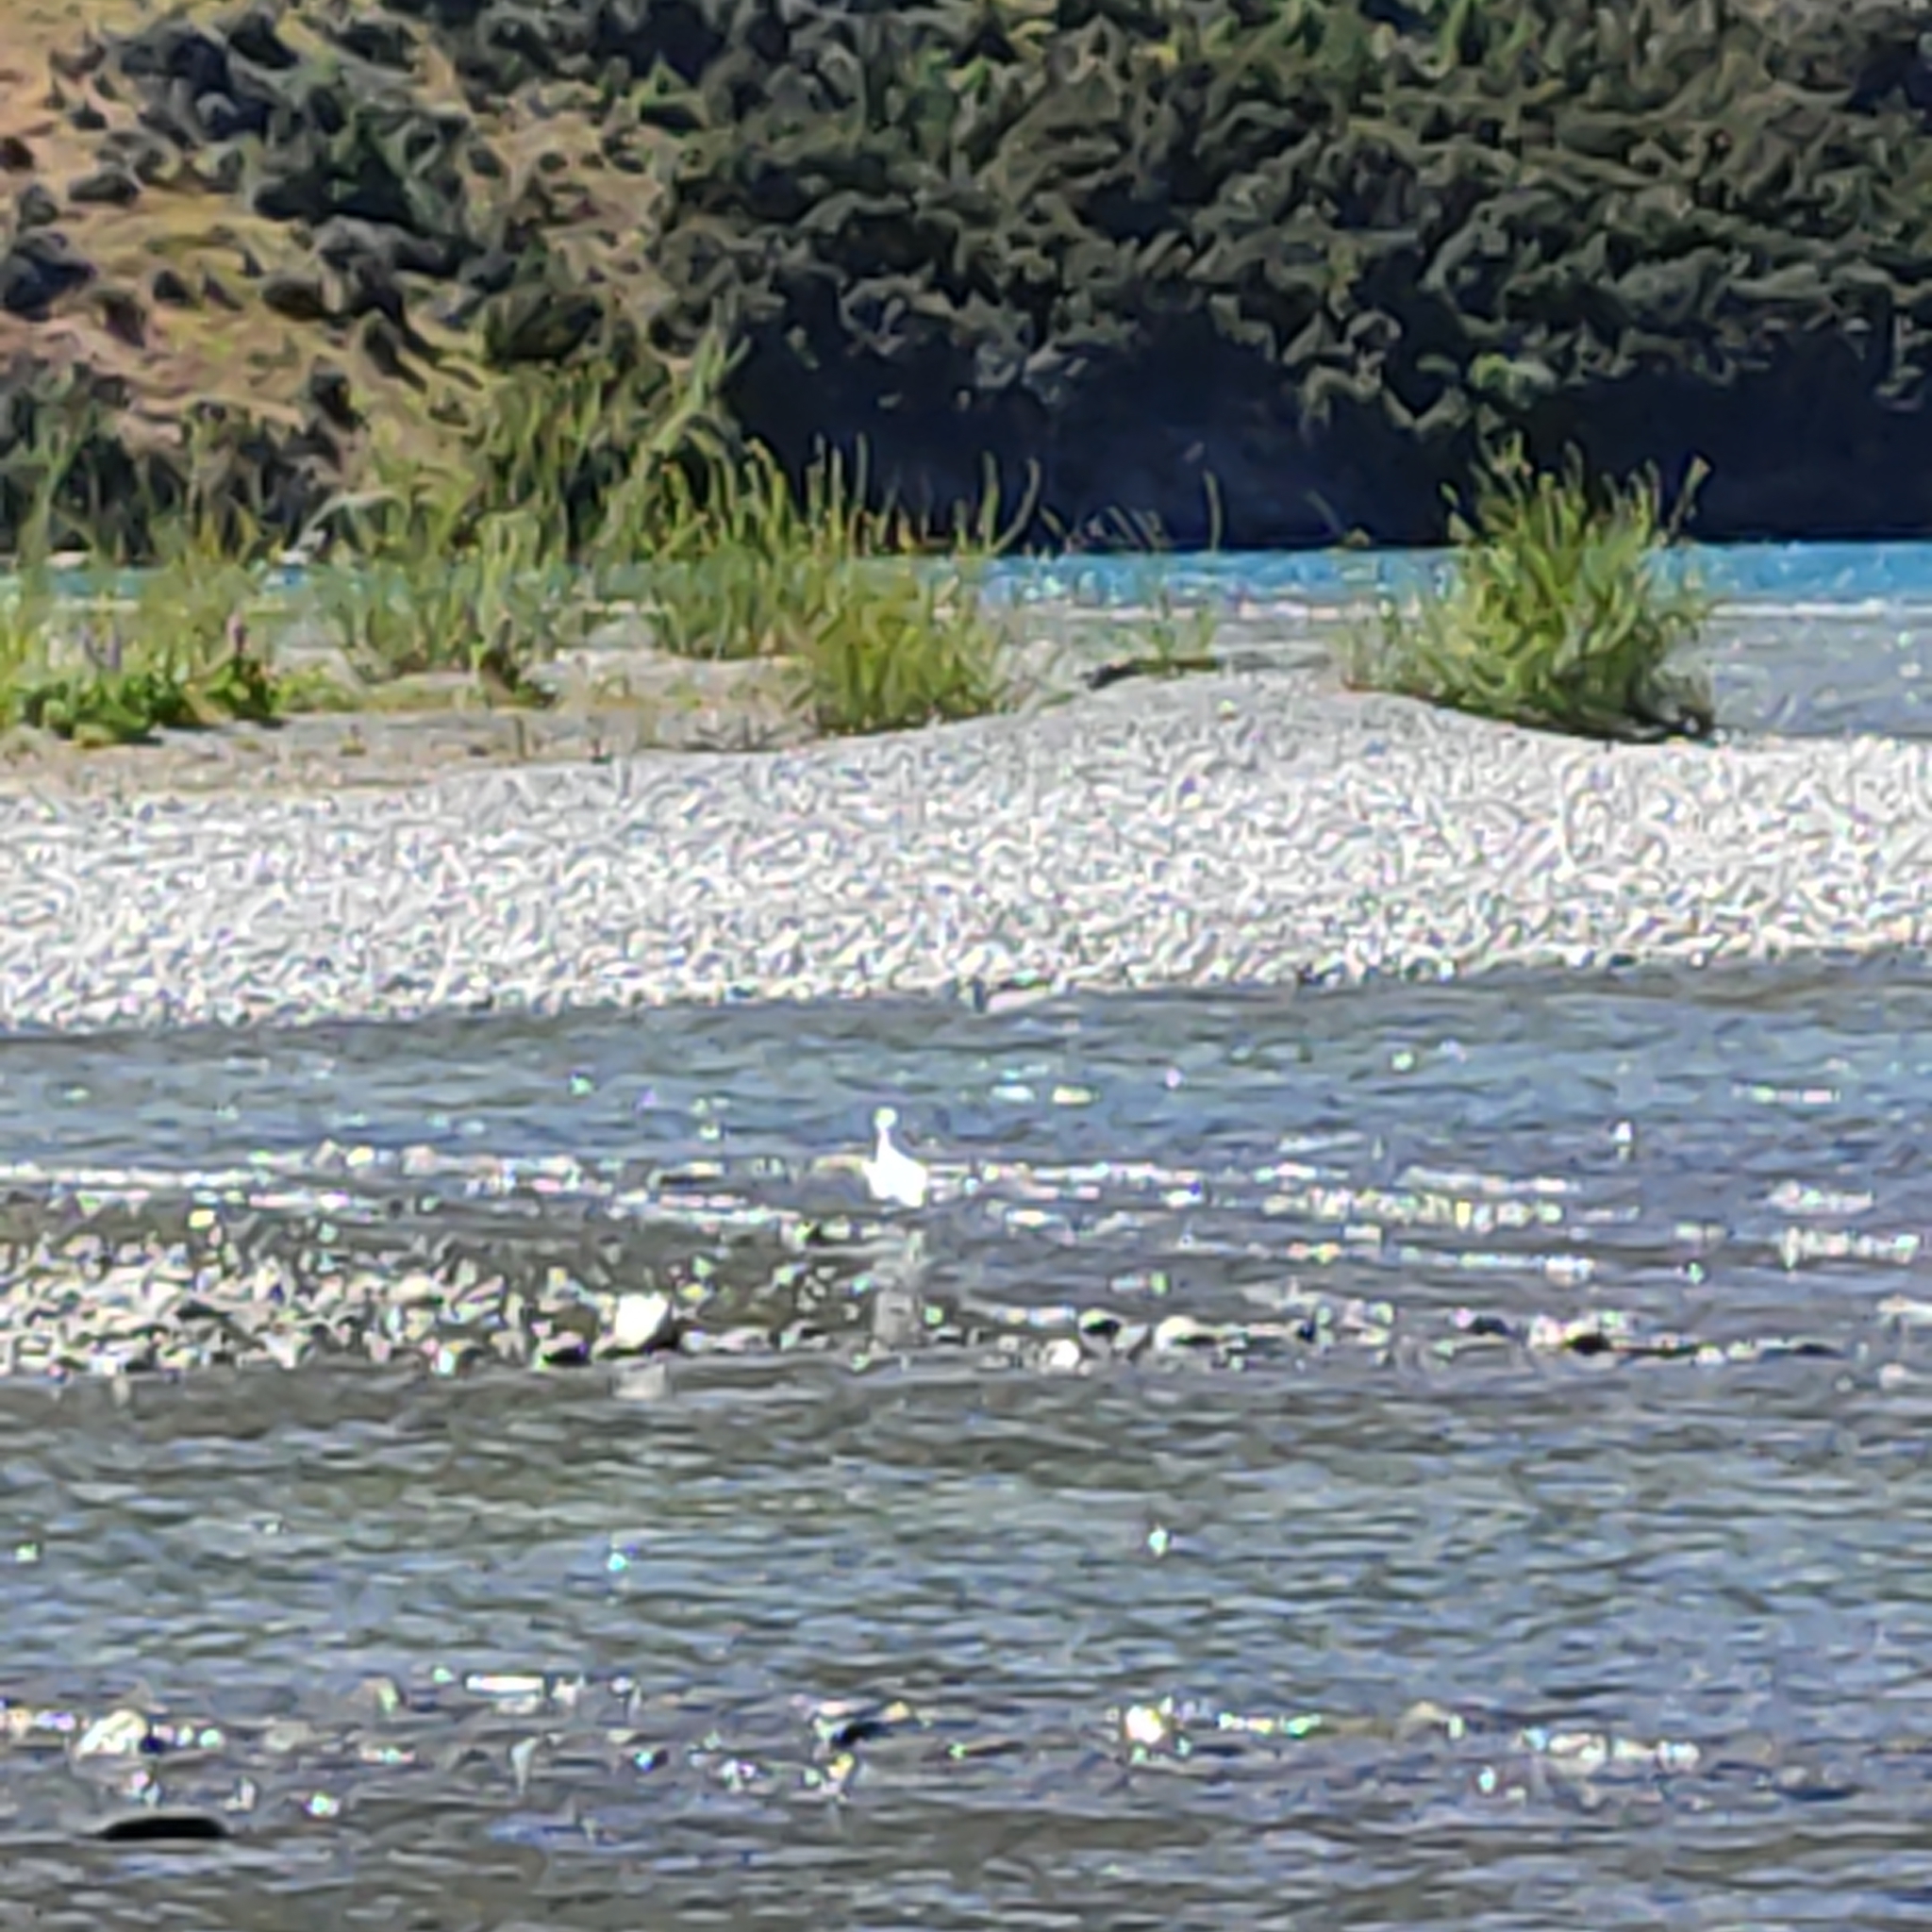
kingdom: Animalia
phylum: Chordata
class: Aves
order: Charadriiformes
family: Laridae
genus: Chroicocephalus
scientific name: Chroicocephalus bulleri
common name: Black-billed gull
